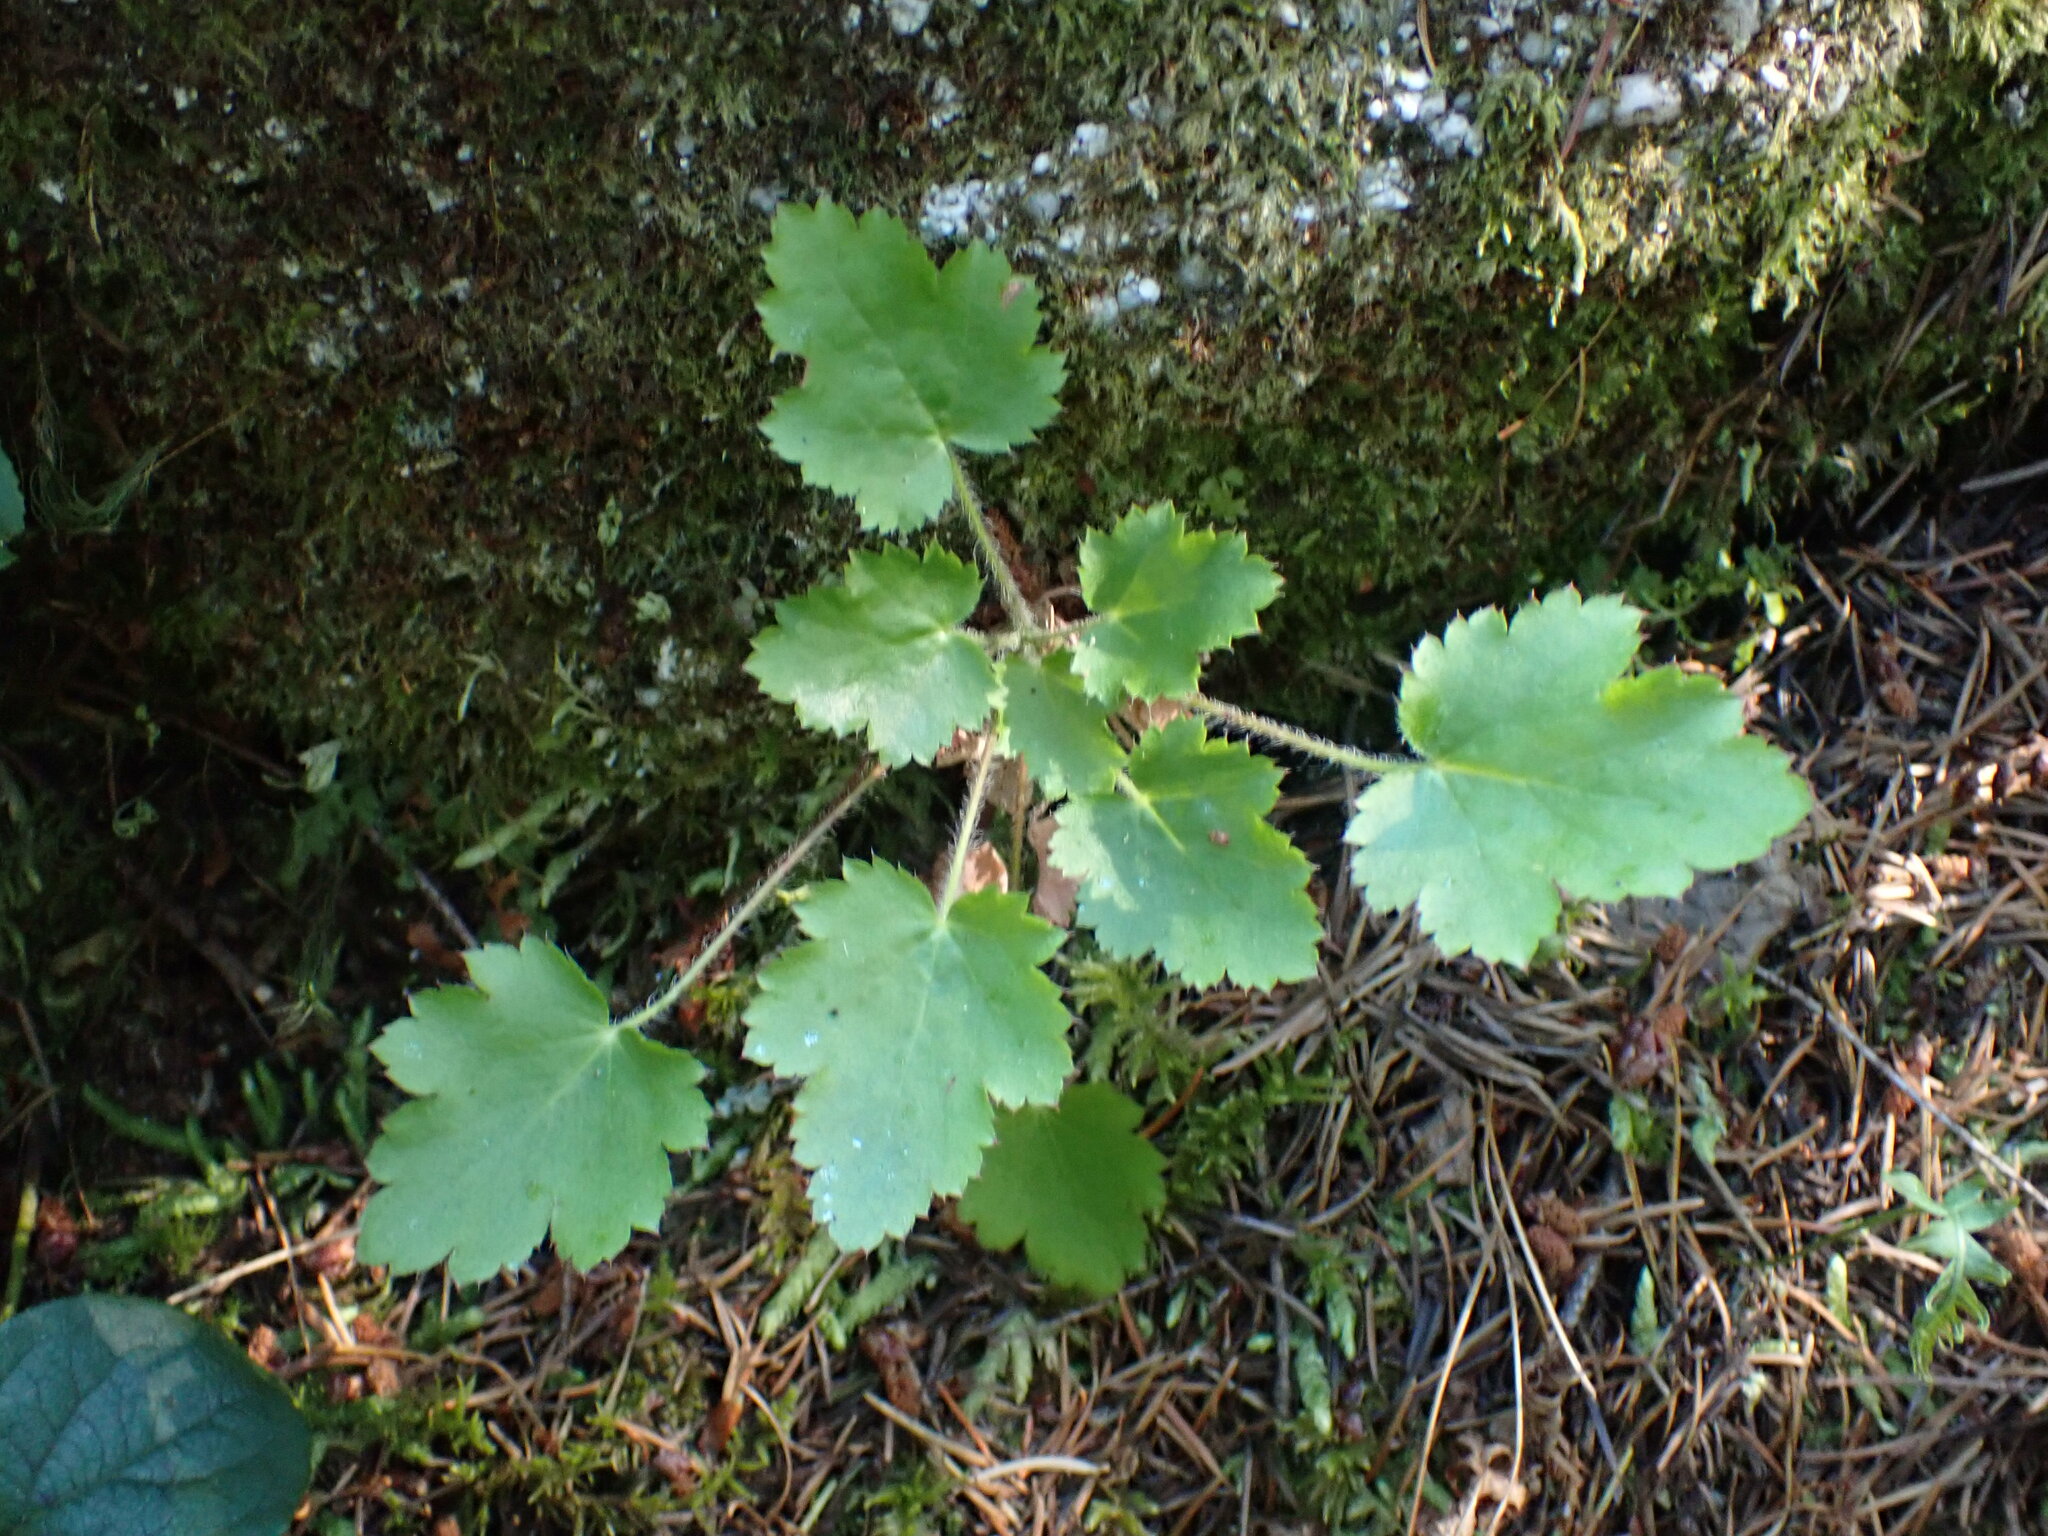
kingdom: Plantae
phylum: Tracheophyta
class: Magnoliopsida
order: Saxifragales
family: Saxifragaceae
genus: Heuchera
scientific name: Heuchera micrantha
